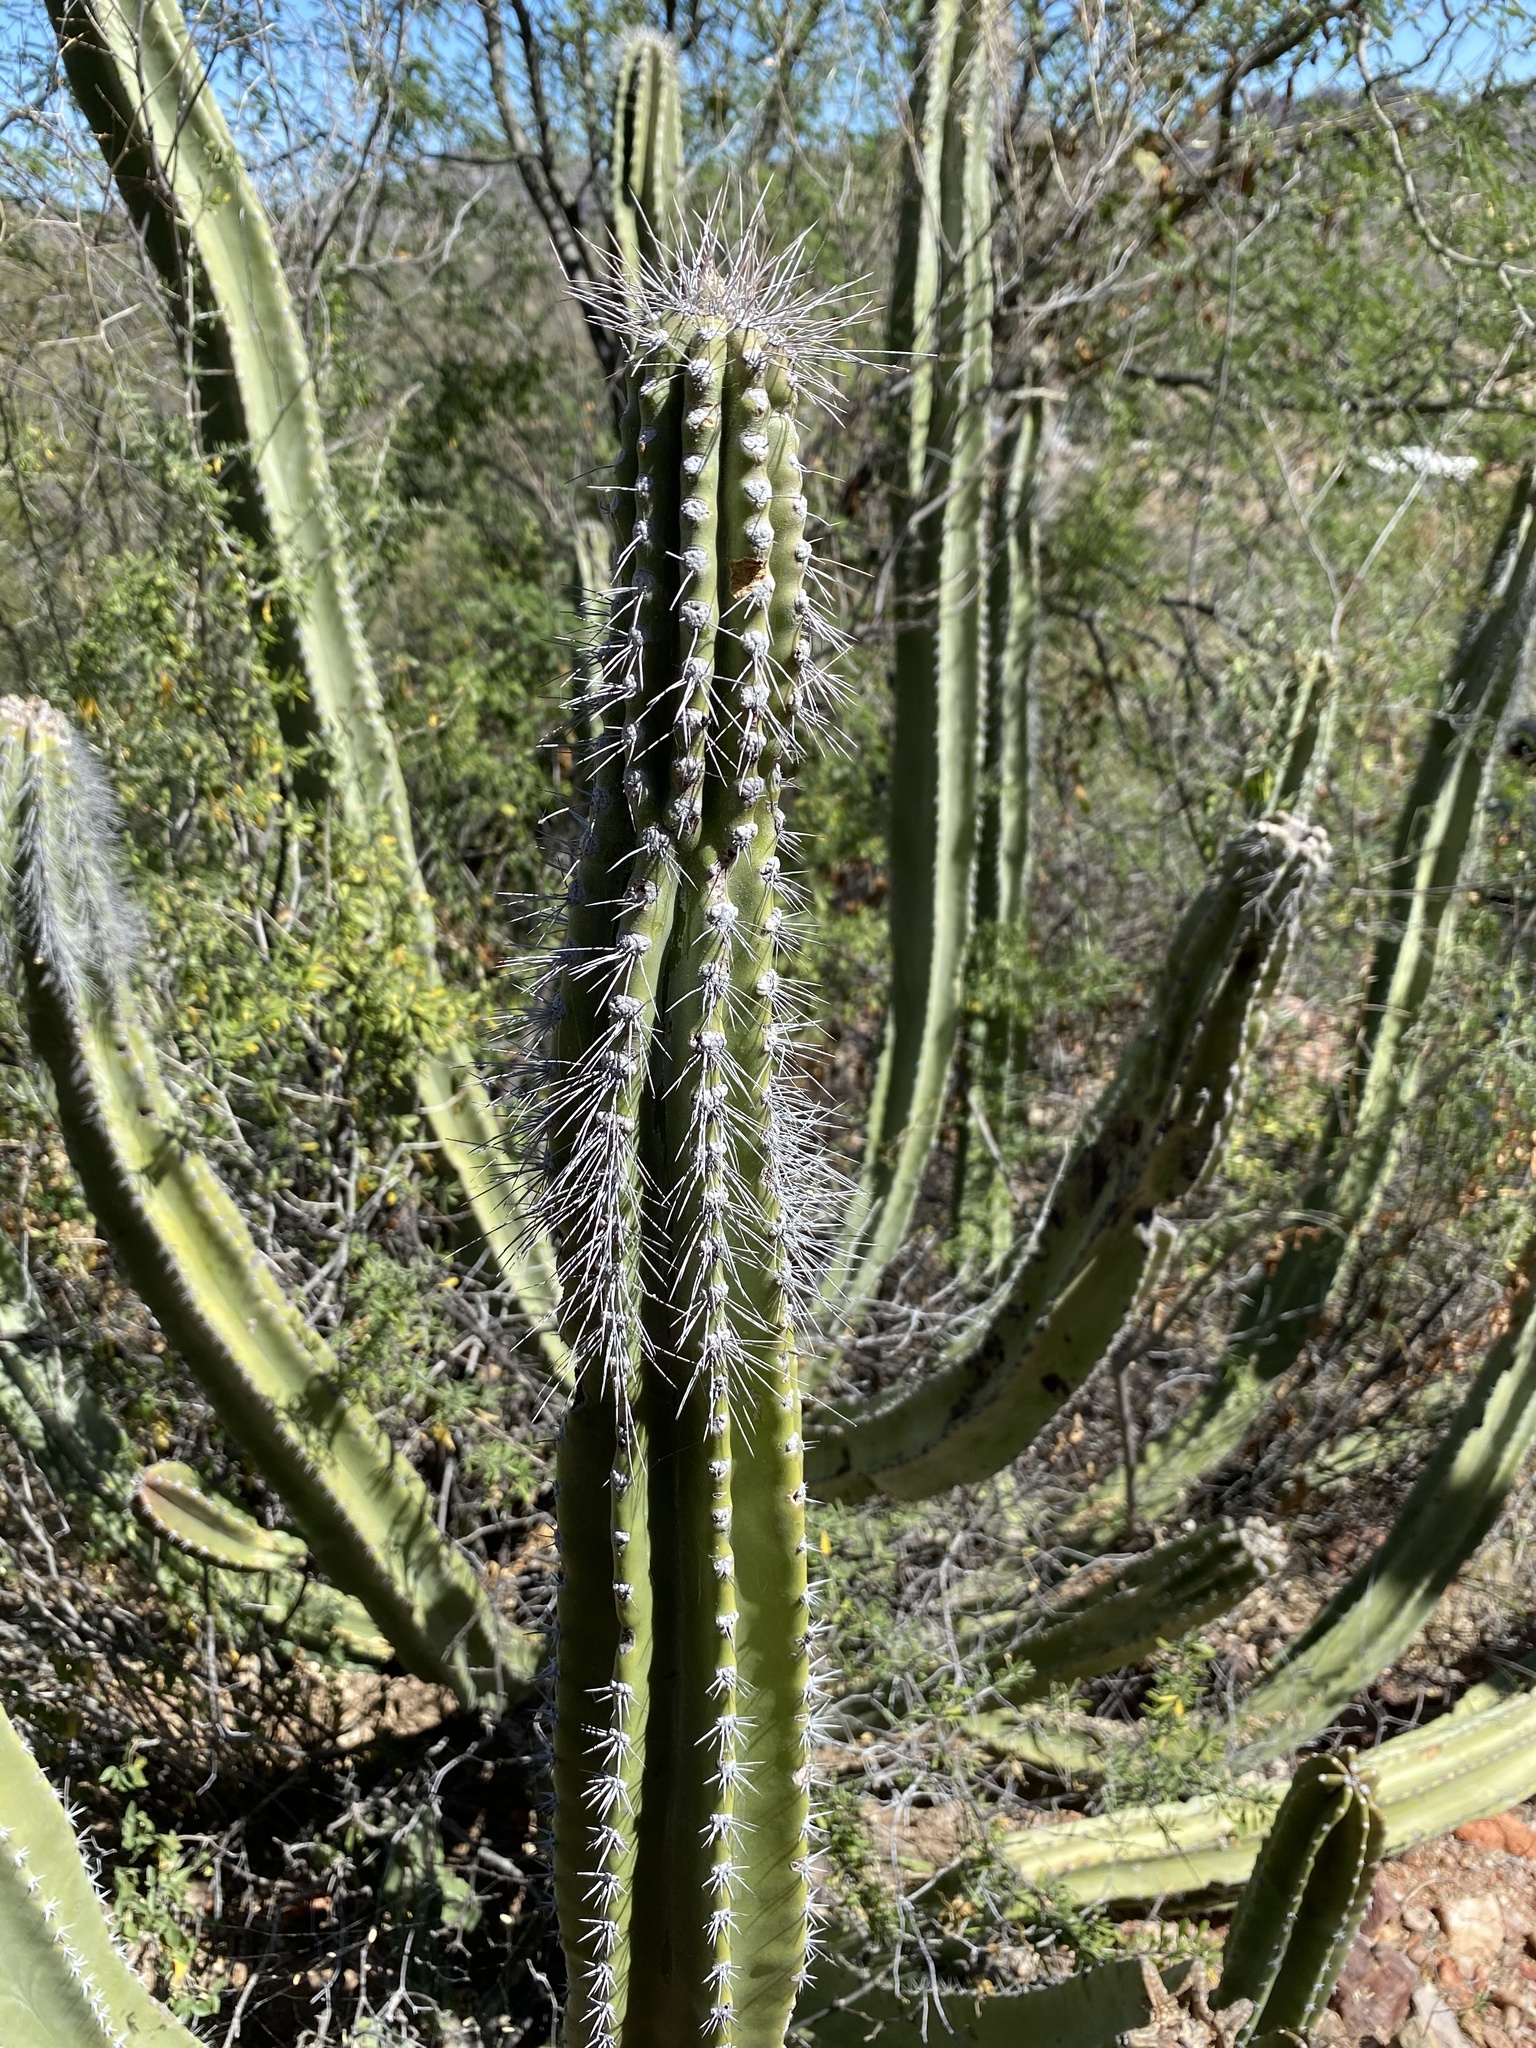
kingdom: Plantae
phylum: Tracheophyta
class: Magnoliopsida
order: Caryophyllales
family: Cactaceae
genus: Pachycereus
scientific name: Pachycereus schottii
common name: Senita cactus
